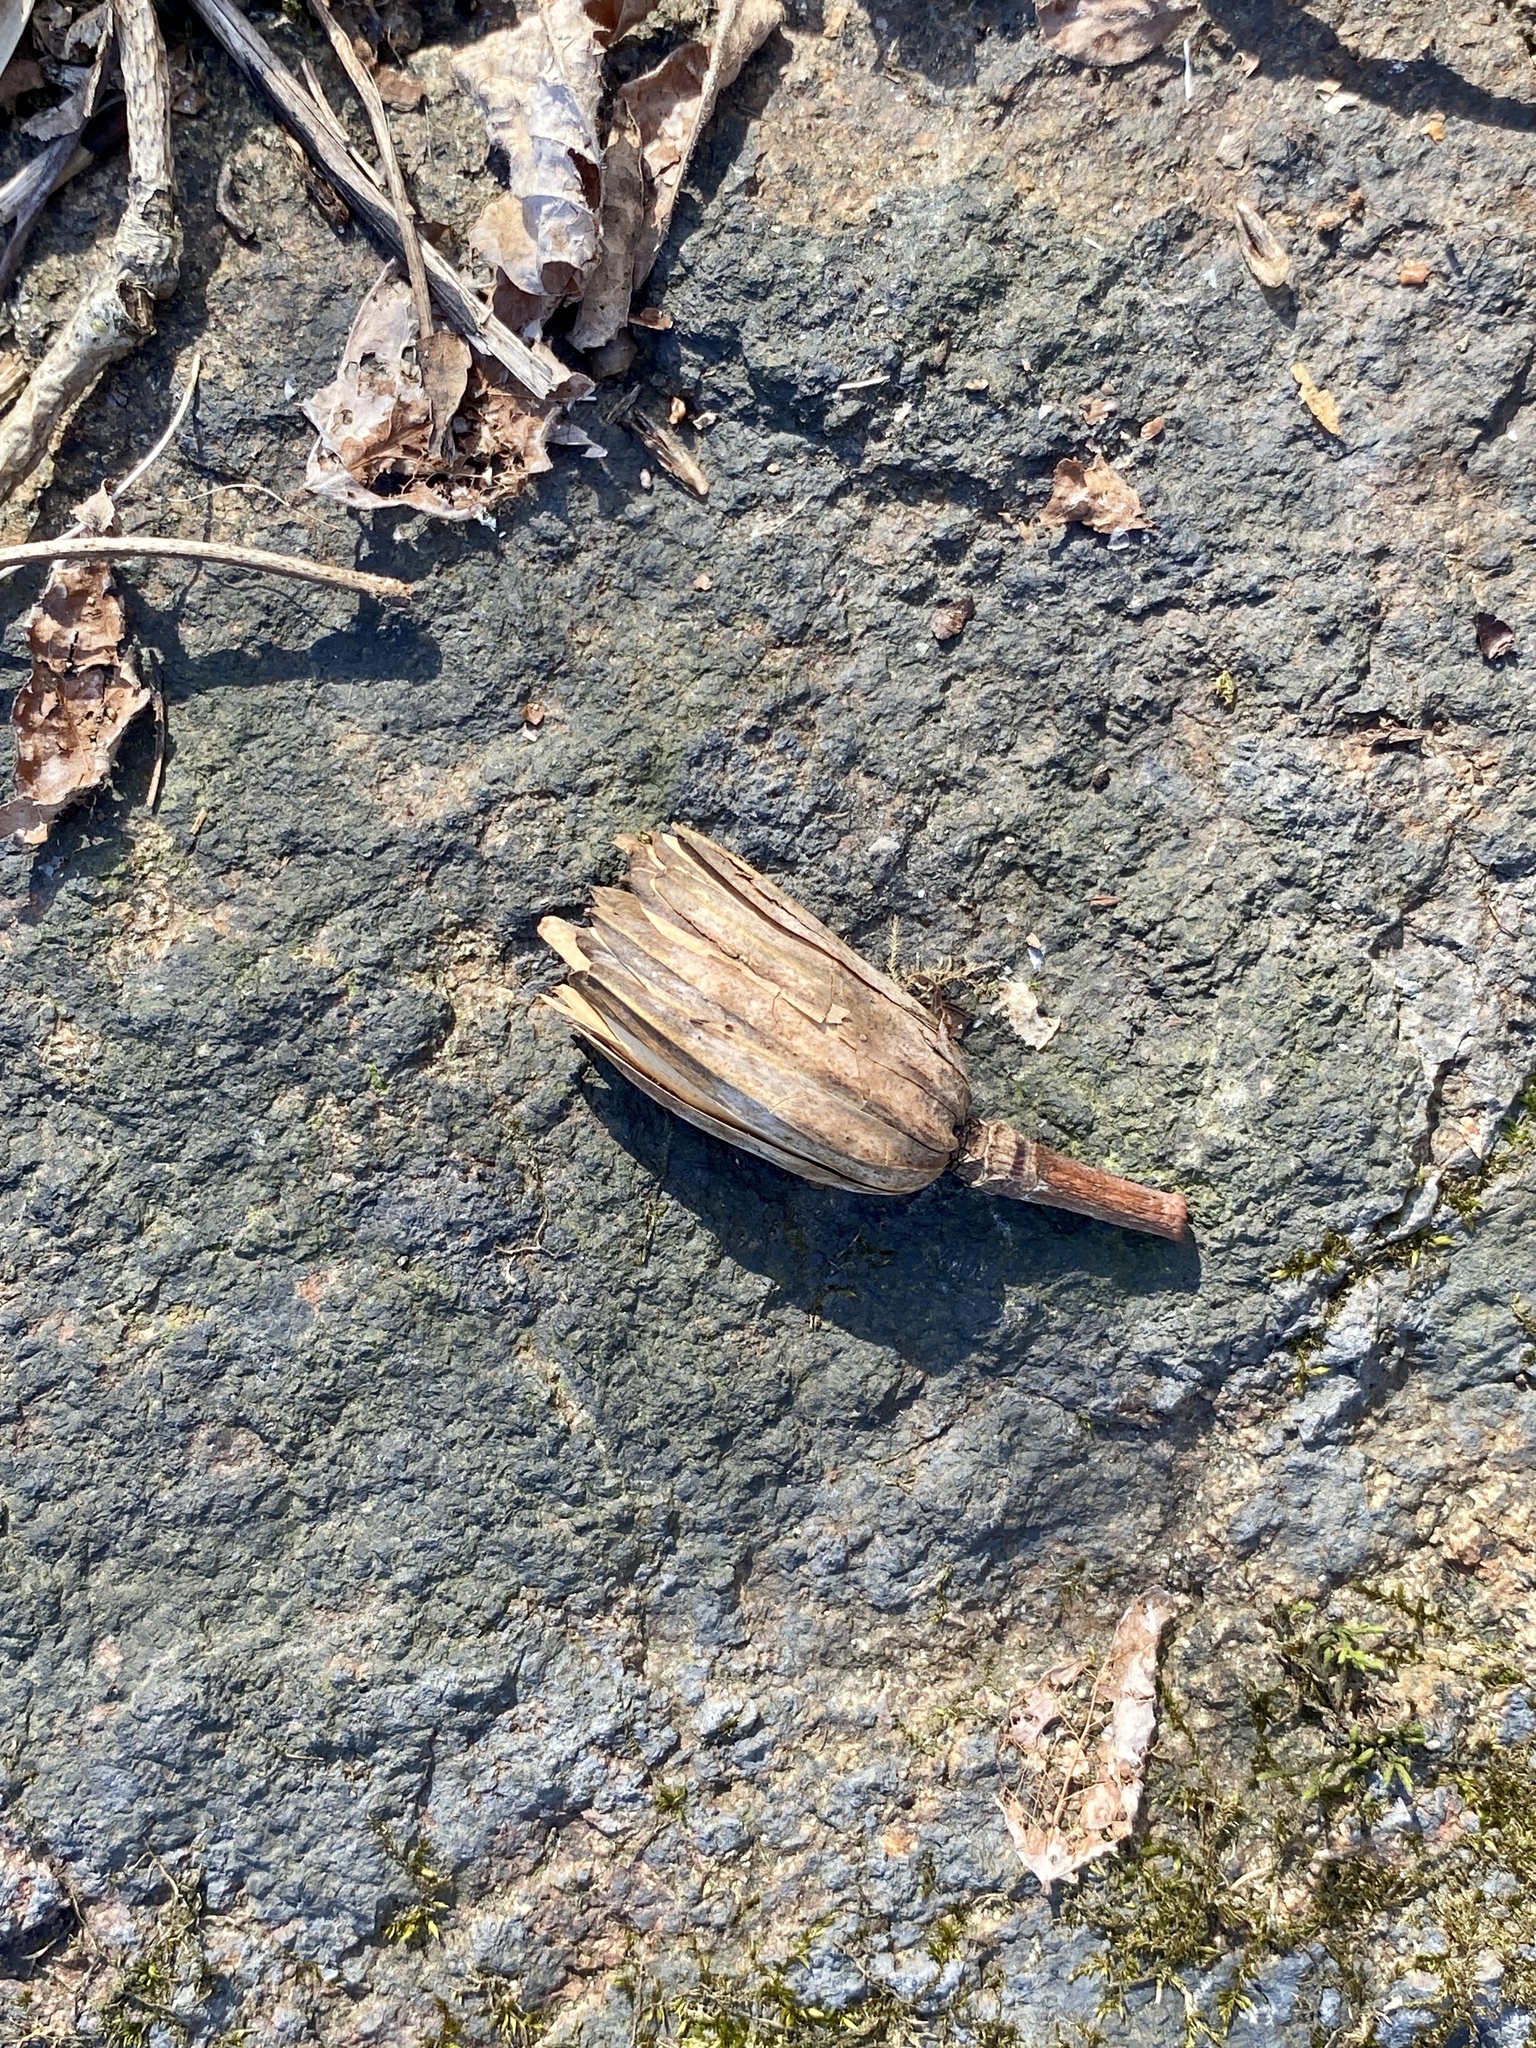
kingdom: Plantae
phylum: Tracheophyta
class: Magnoliopsida
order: Magnoliales
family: Magnoliaceae
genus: Liriodendron
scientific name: Liriodendron tulipifera
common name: Tulip tree
